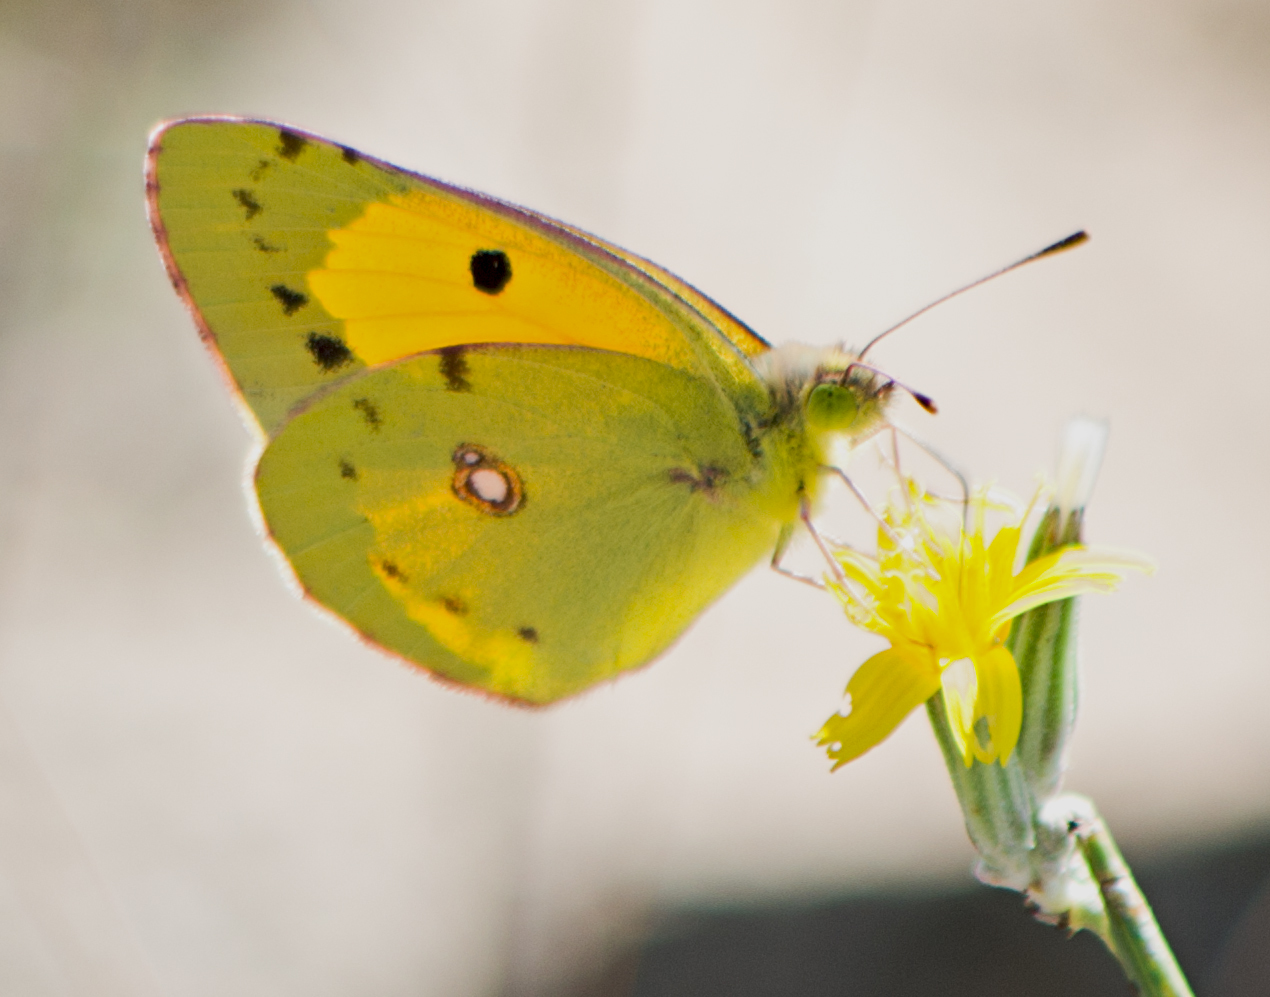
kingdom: Animalia
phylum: Arthropoda
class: Insecta
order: Lepidoptera
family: Pieridae
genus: Colias
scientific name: Colias croceus
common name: Clouded yellow
